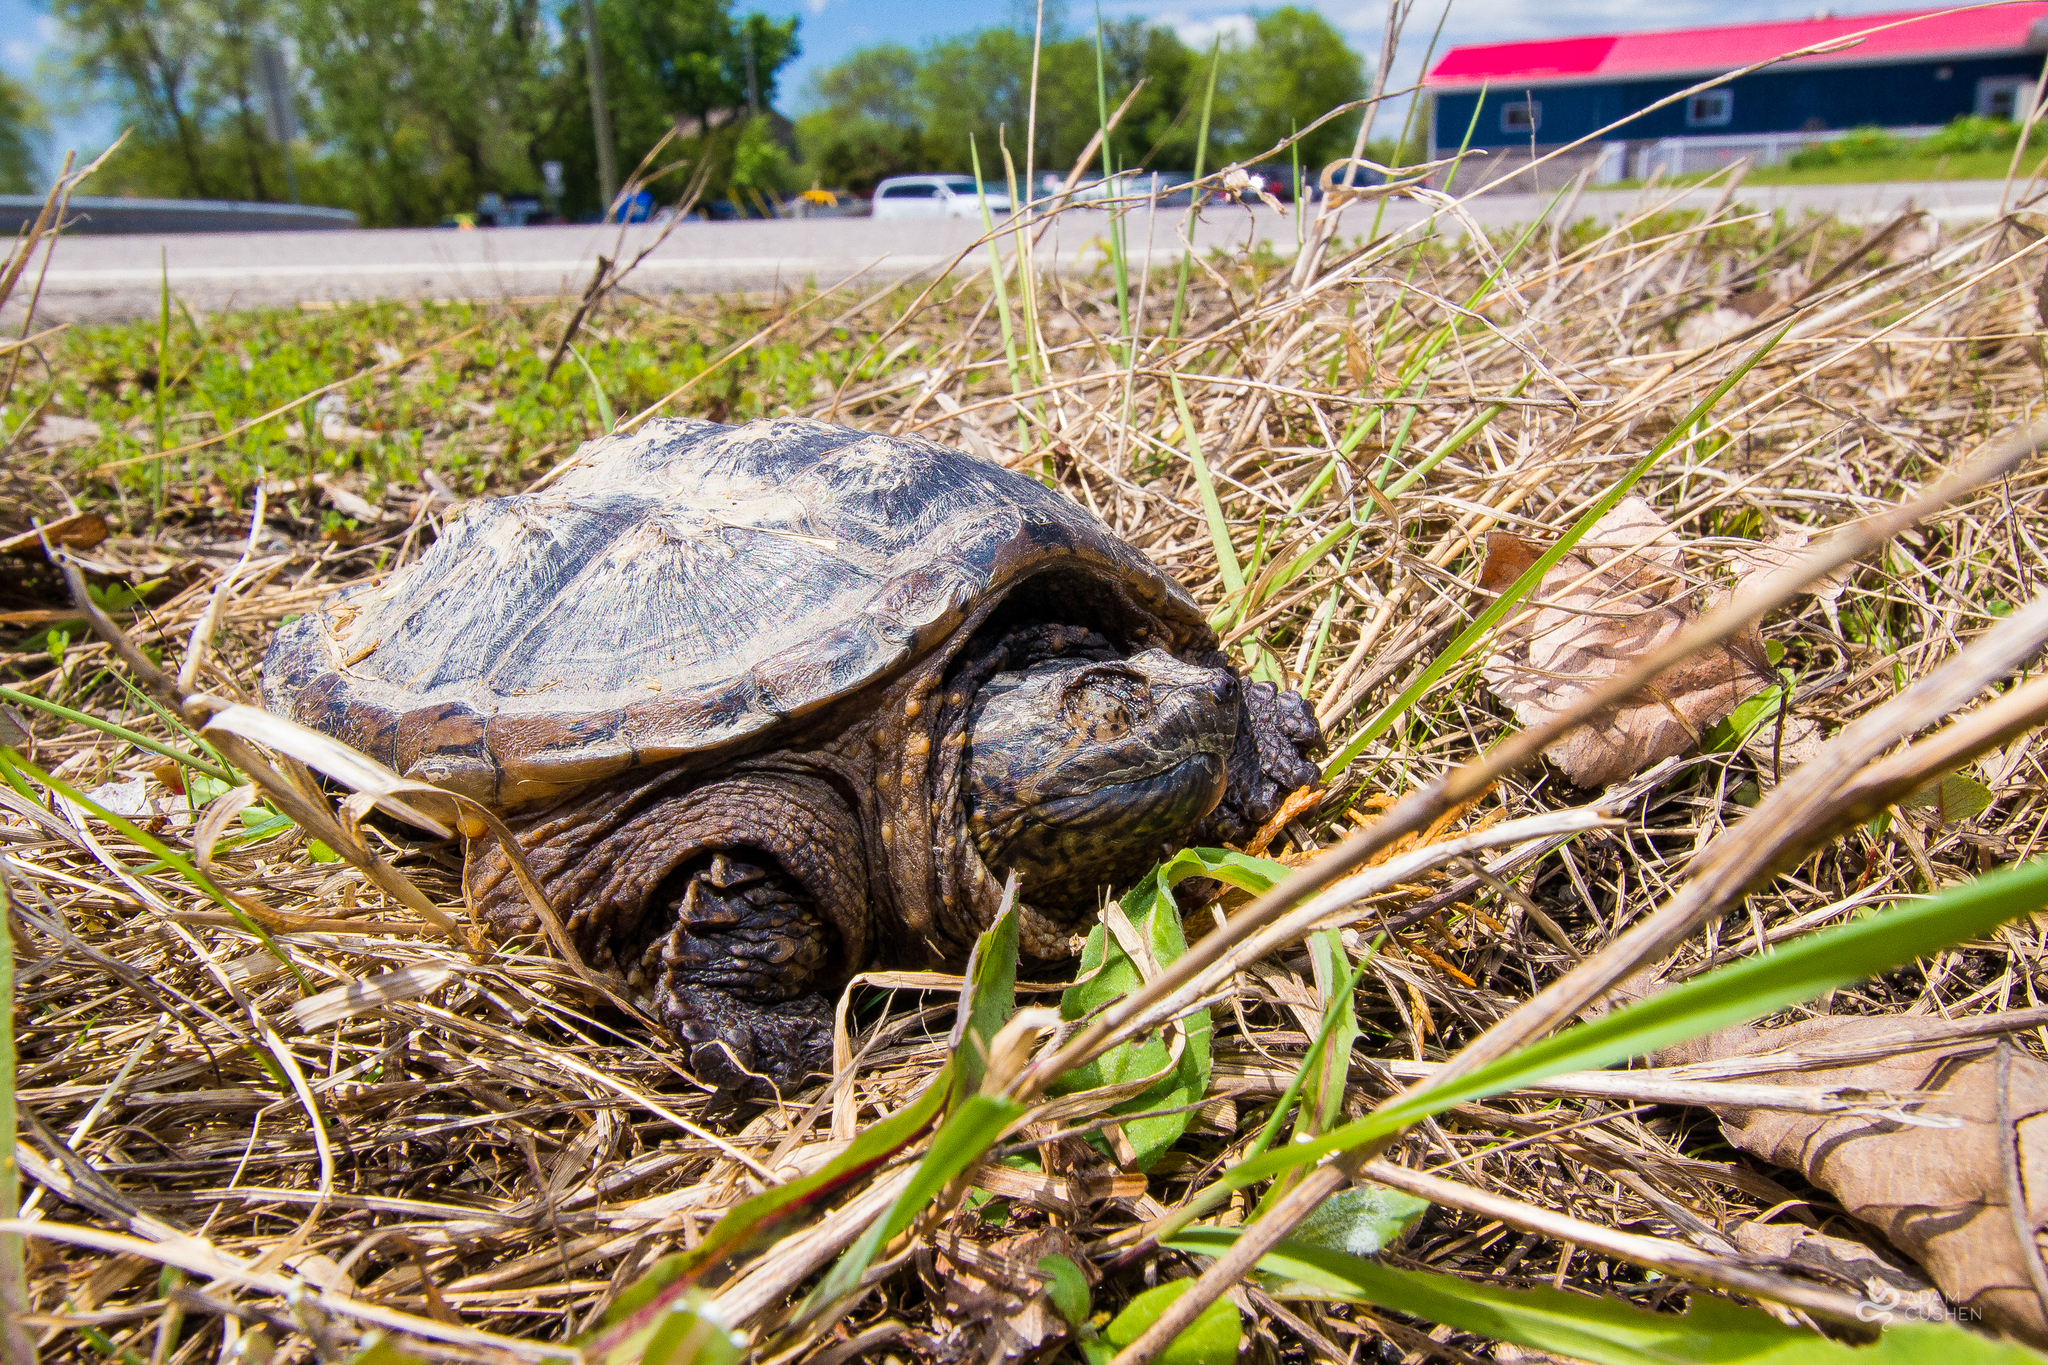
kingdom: Animalia
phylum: Chordata
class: Testudines
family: Chelydridae
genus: Chelydra
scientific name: Chelydra serpentina
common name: Common snapping turtle
